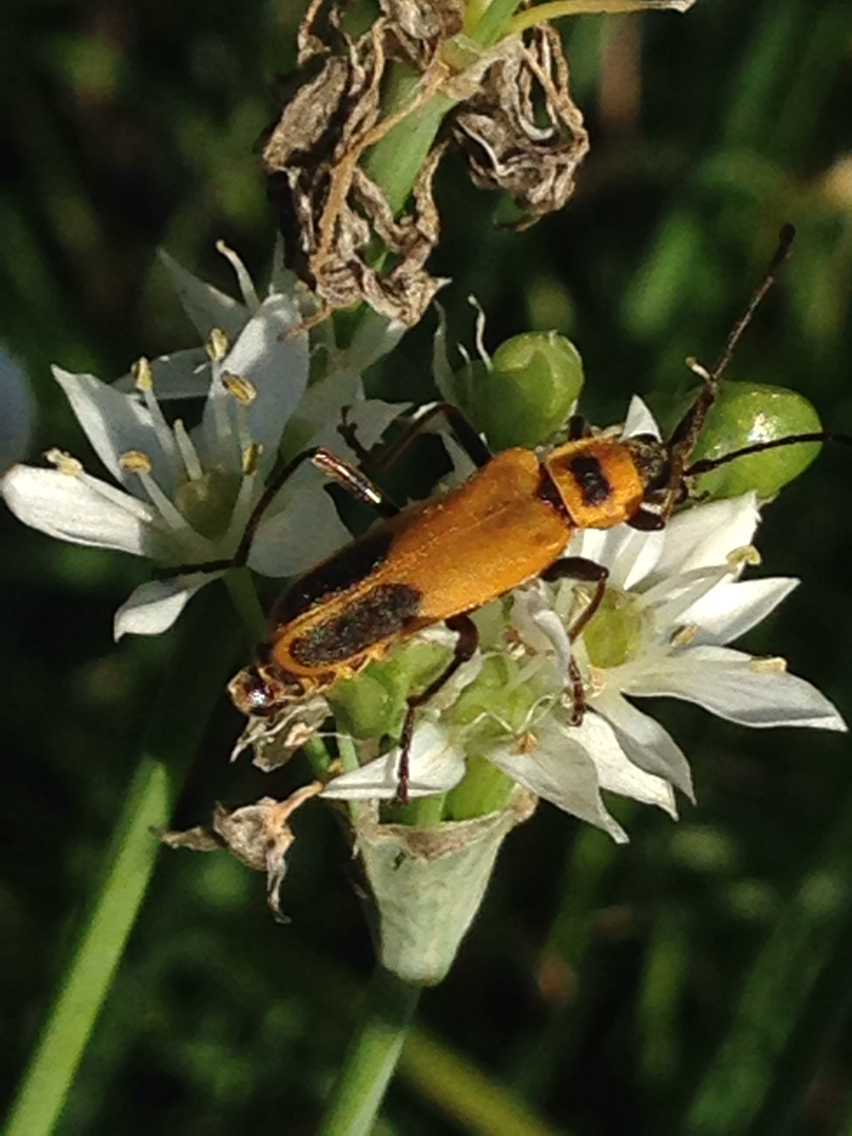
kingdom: Animalia
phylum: Arthropoda
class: Insecta
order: Coleoptera
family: Cantharidae
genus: Chauliognathus
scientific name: Chauliognathus pensylvanicus
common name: Goldenrod soldier beetle
